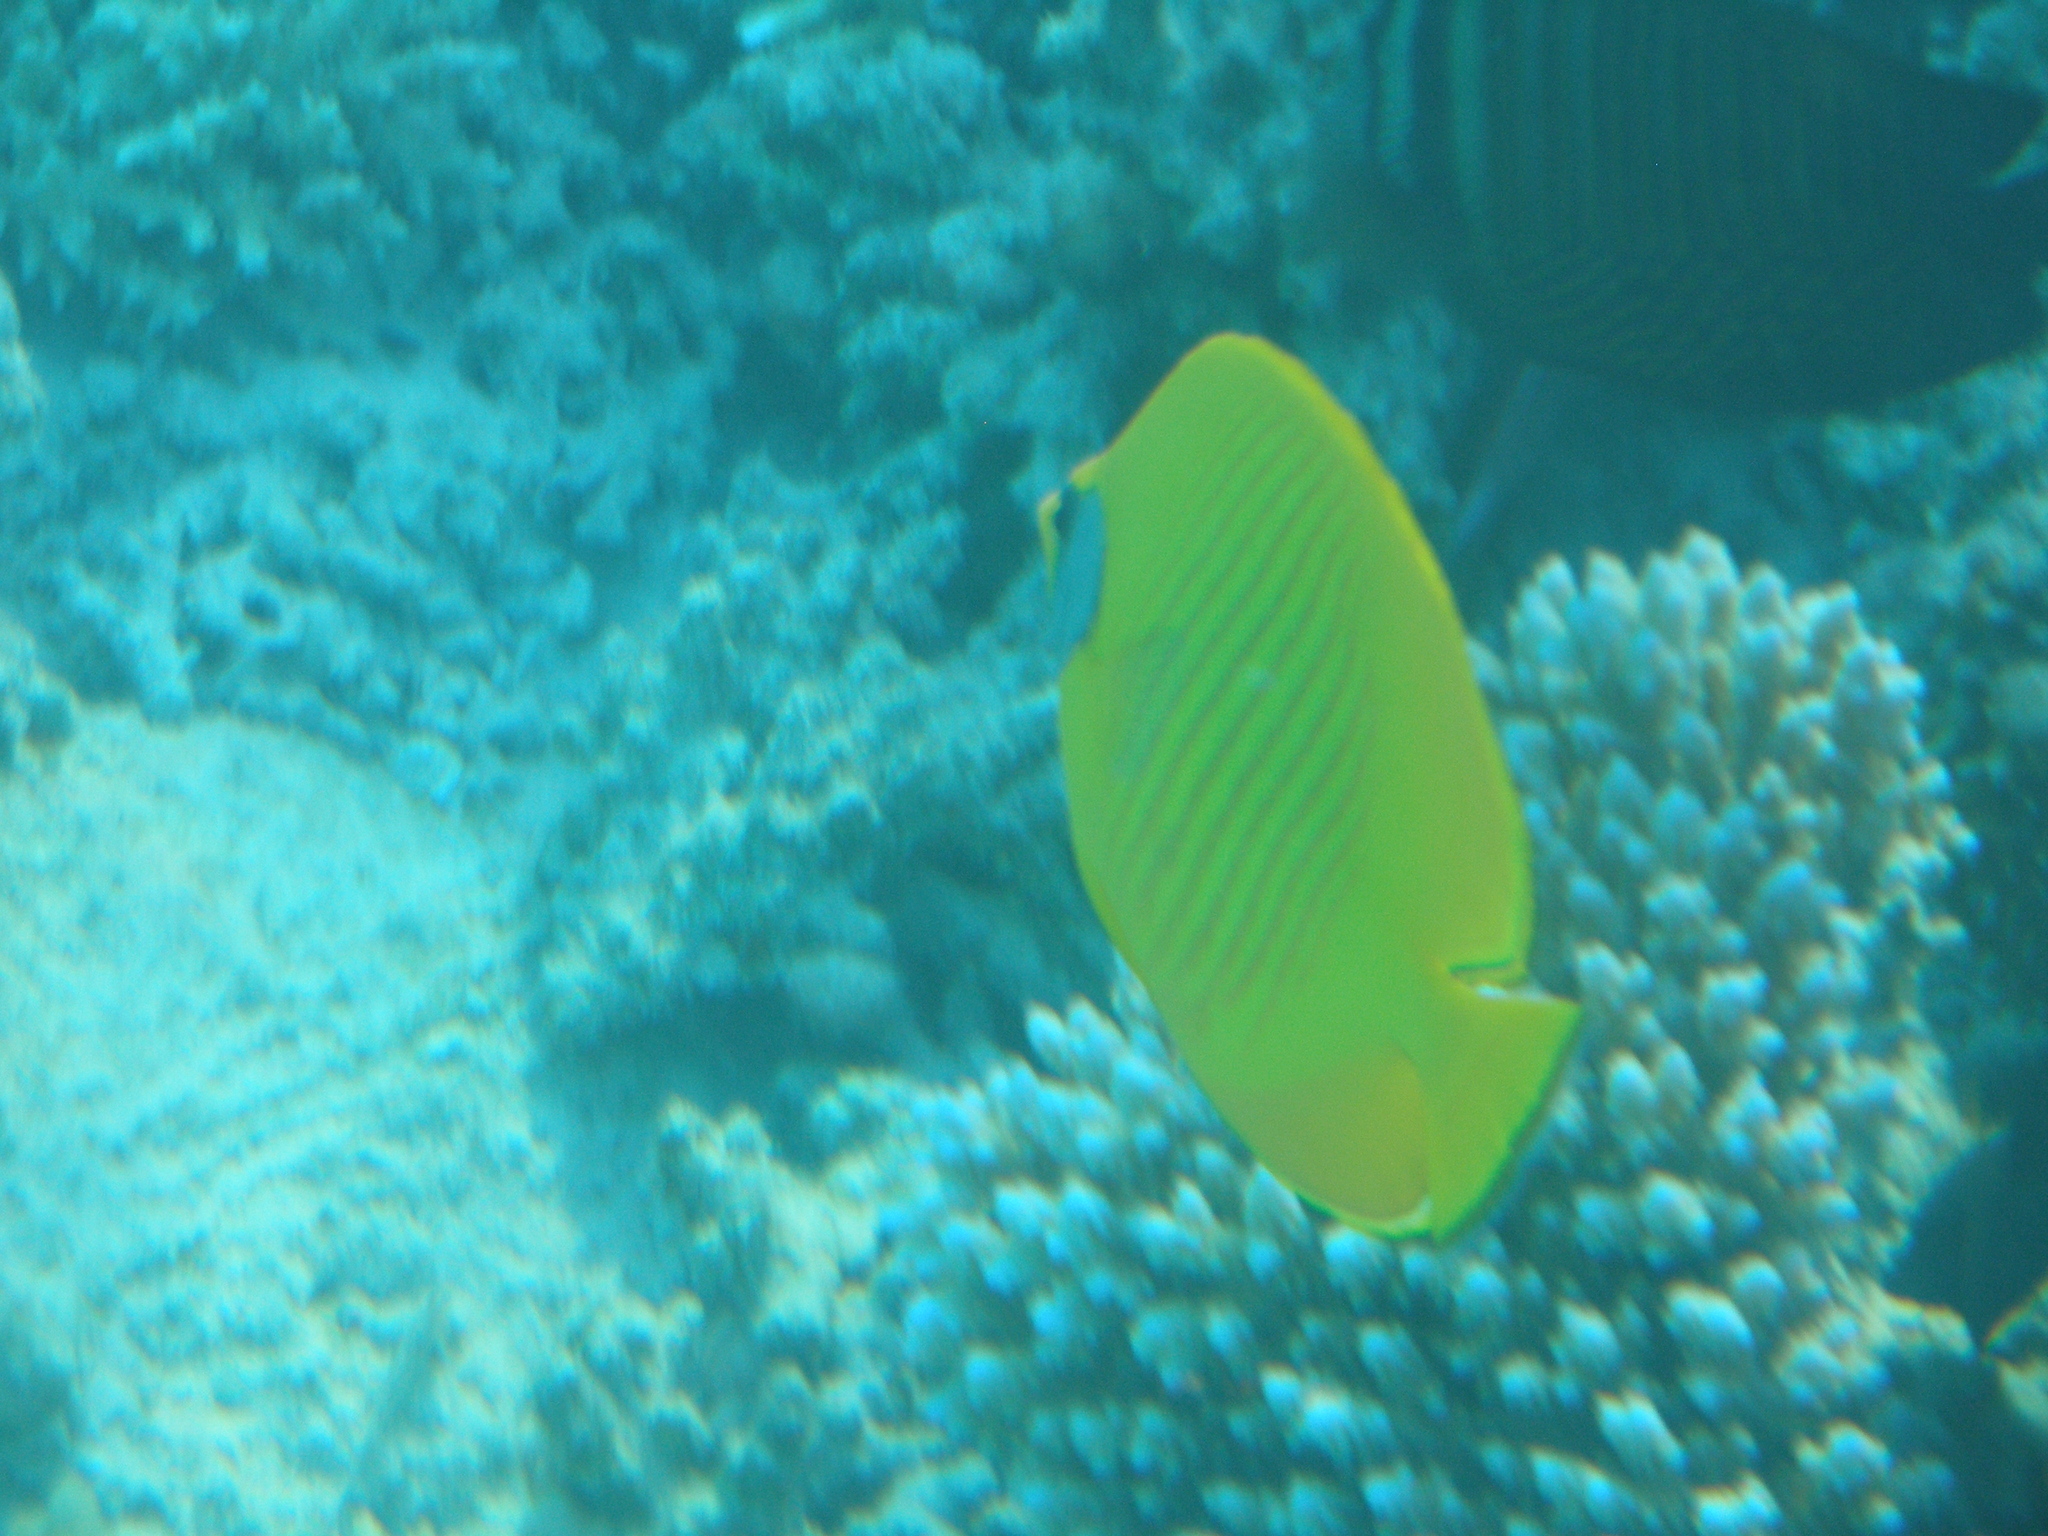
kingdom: Animalia
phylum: Chordata
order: Perciformes
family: Chaetodontidae
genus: Chaetodon
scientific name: Chaetodon semilarvatus
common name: Golden butterflyfish
